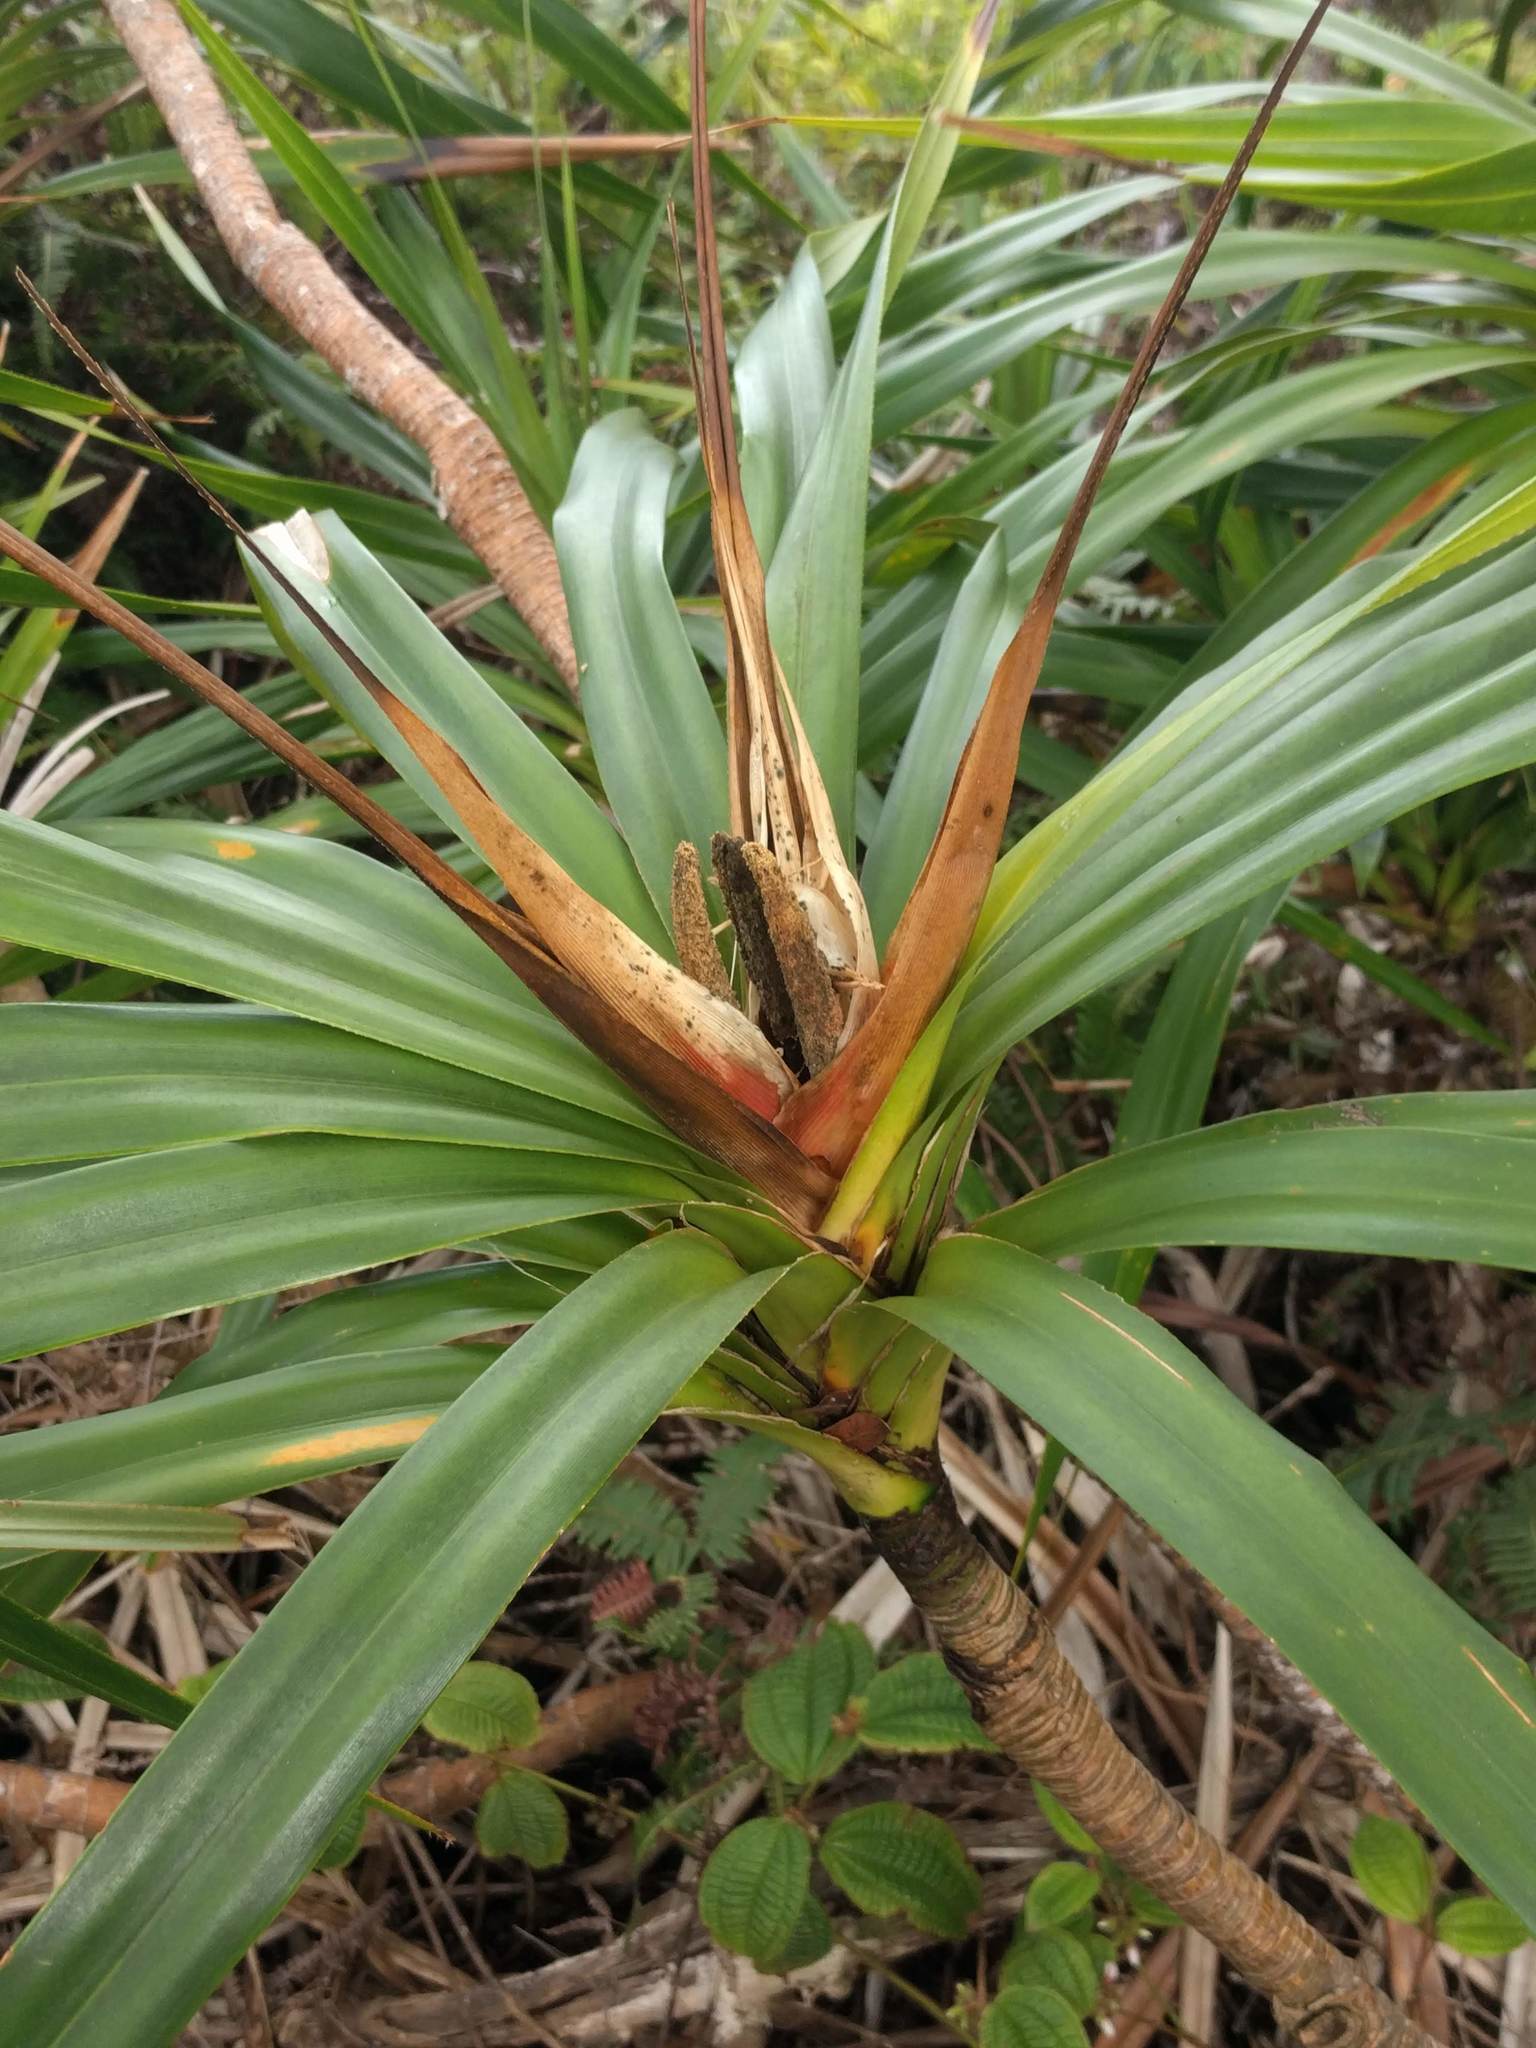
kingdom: Plantae
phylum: Tracheophyta
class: Liliopsida
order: Pandanales
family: Pandanaceae
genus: Freycinetia
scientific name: Freycinetia arborea
